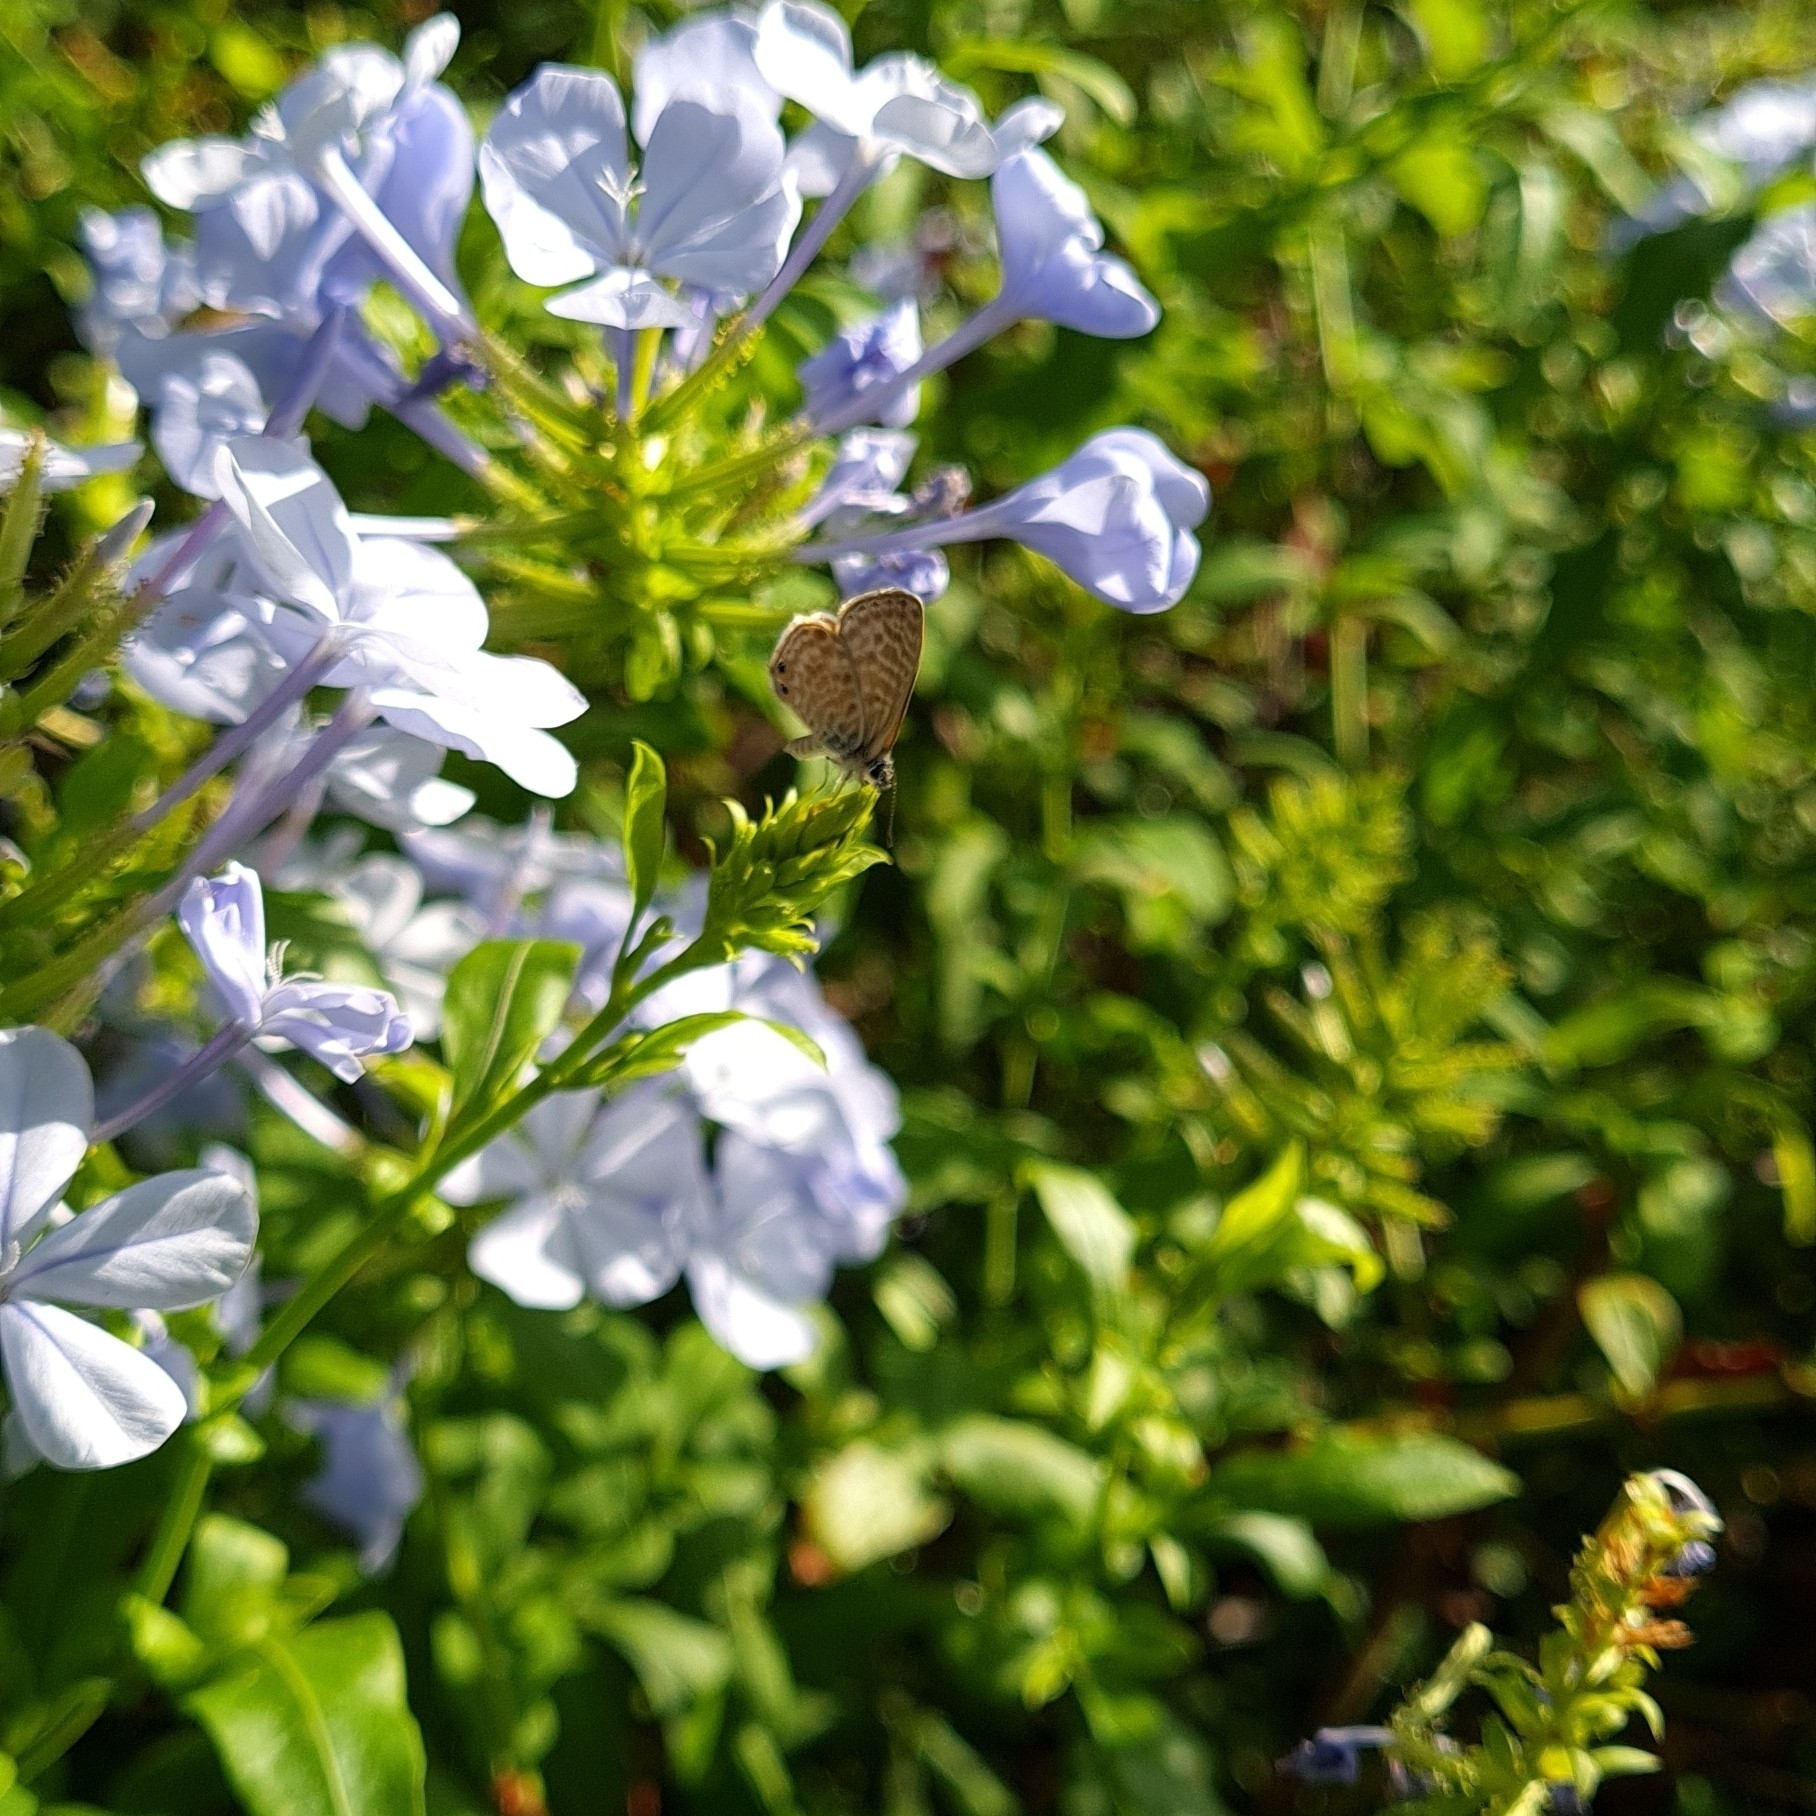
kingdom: Animalia
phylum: Arthropoda
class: Insecta
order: Lepidoptera
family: Lycaenidae
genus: Leptotes
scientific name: Leptotes pirithous
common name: Lang's short-tailed blue
